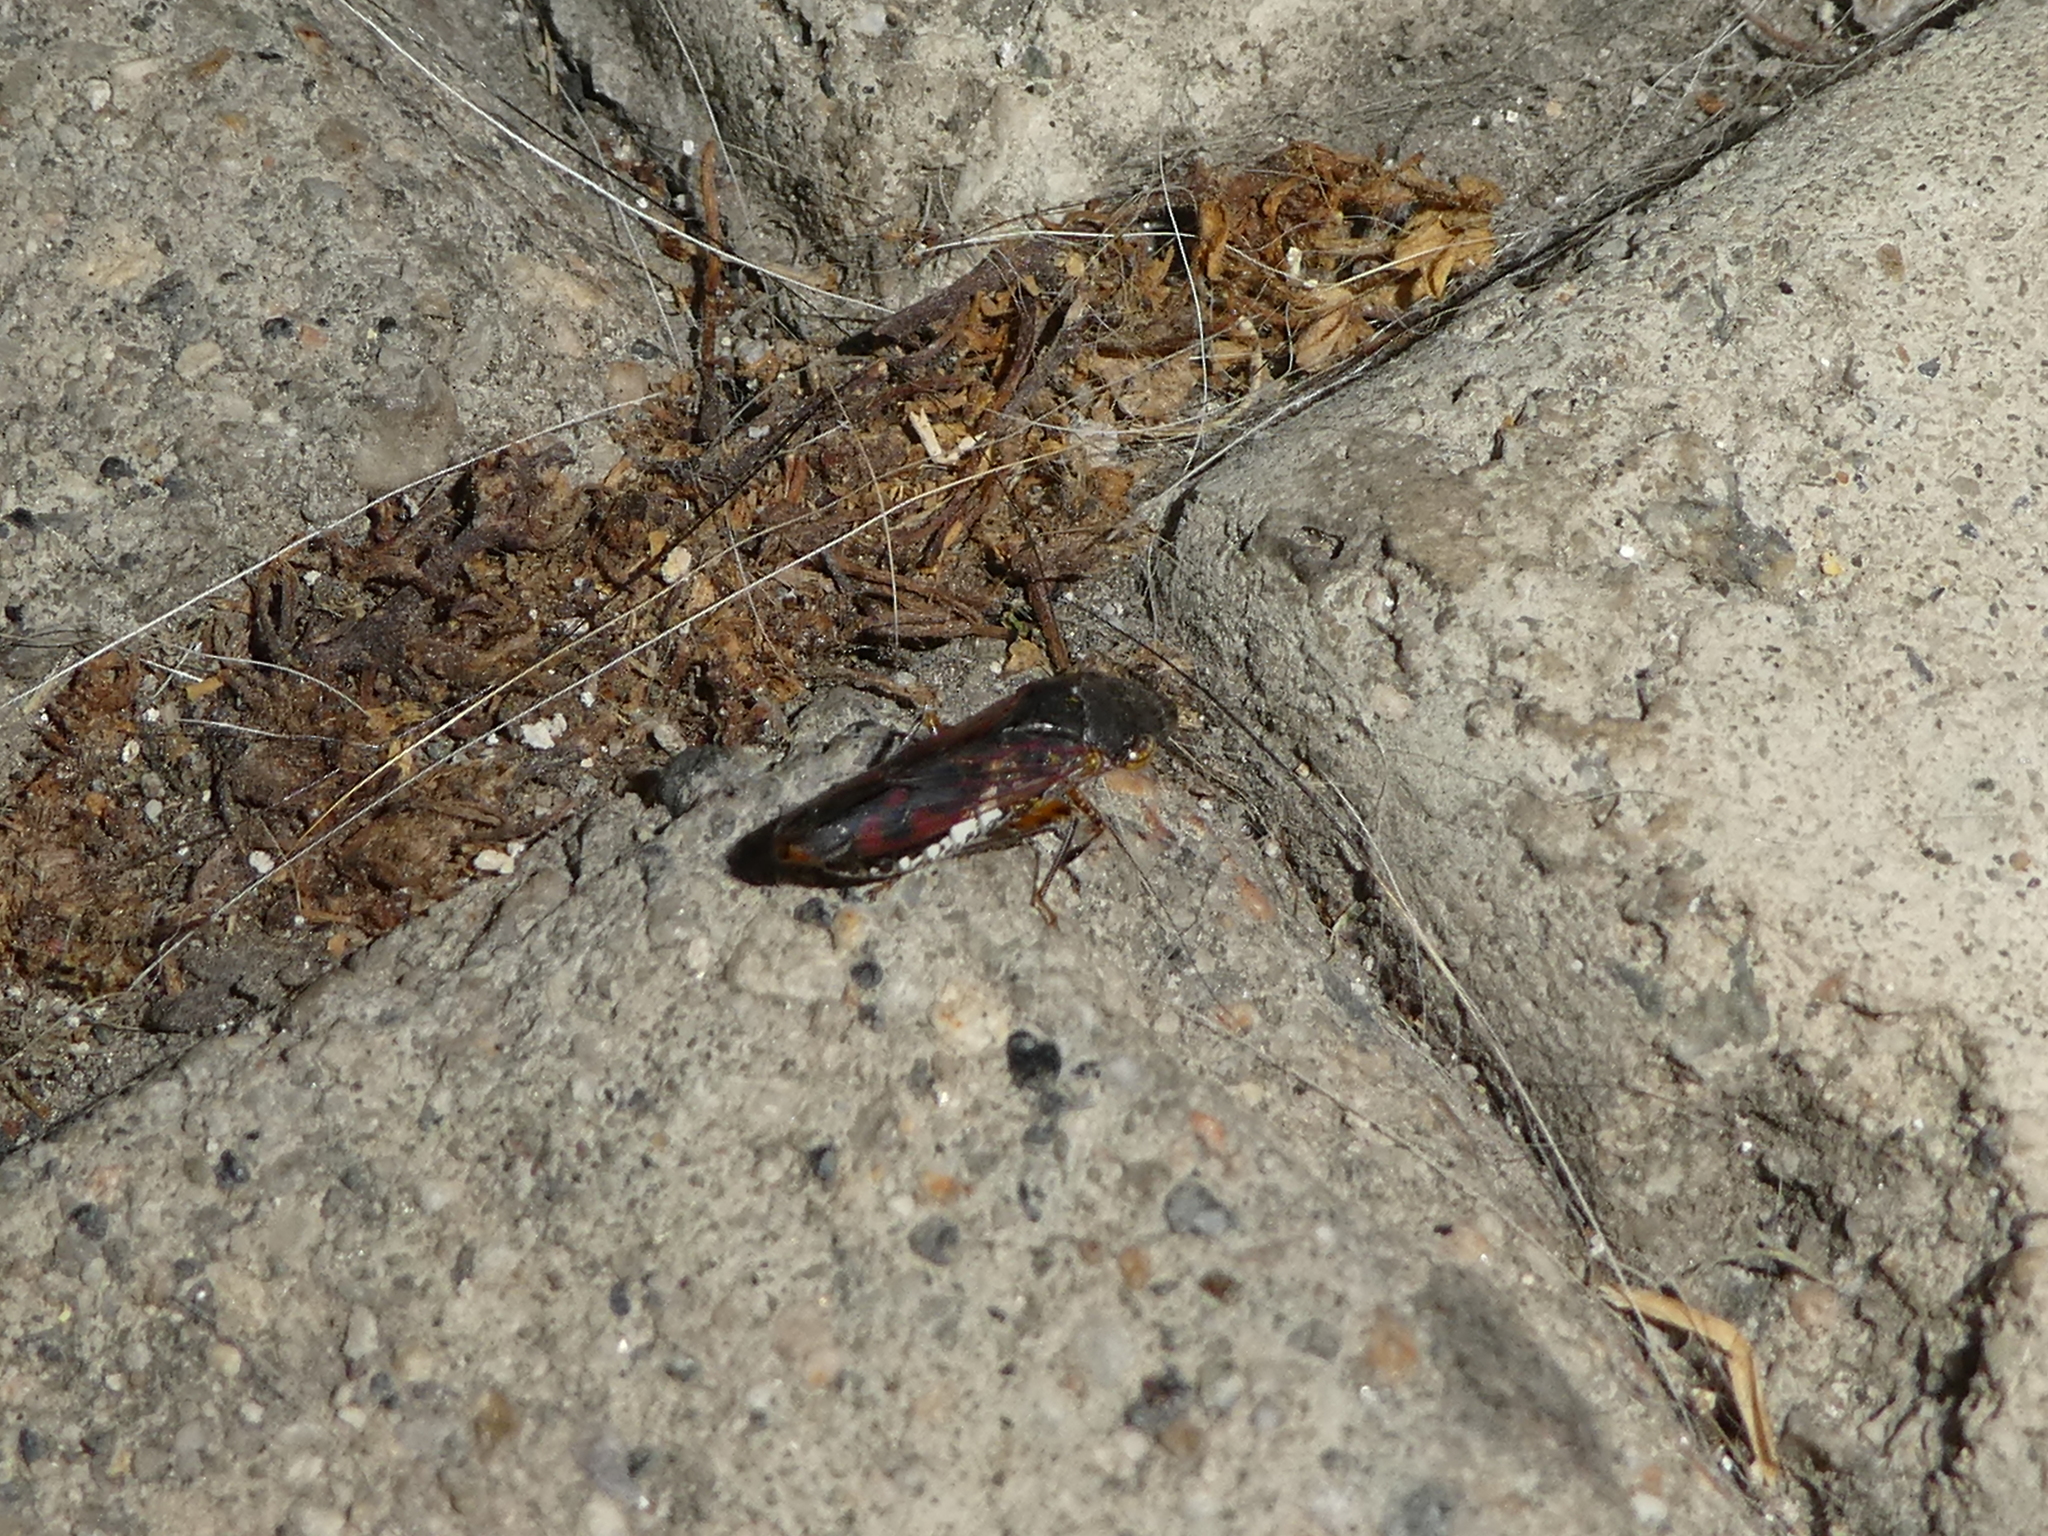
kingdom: Animalia
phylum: Arthropoda
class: Insecta
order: Hemiptera
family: Cicadellidae
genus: Homalodisca
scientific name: Homalodisca vitripennis
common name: Glassy-winged sharpshooter
